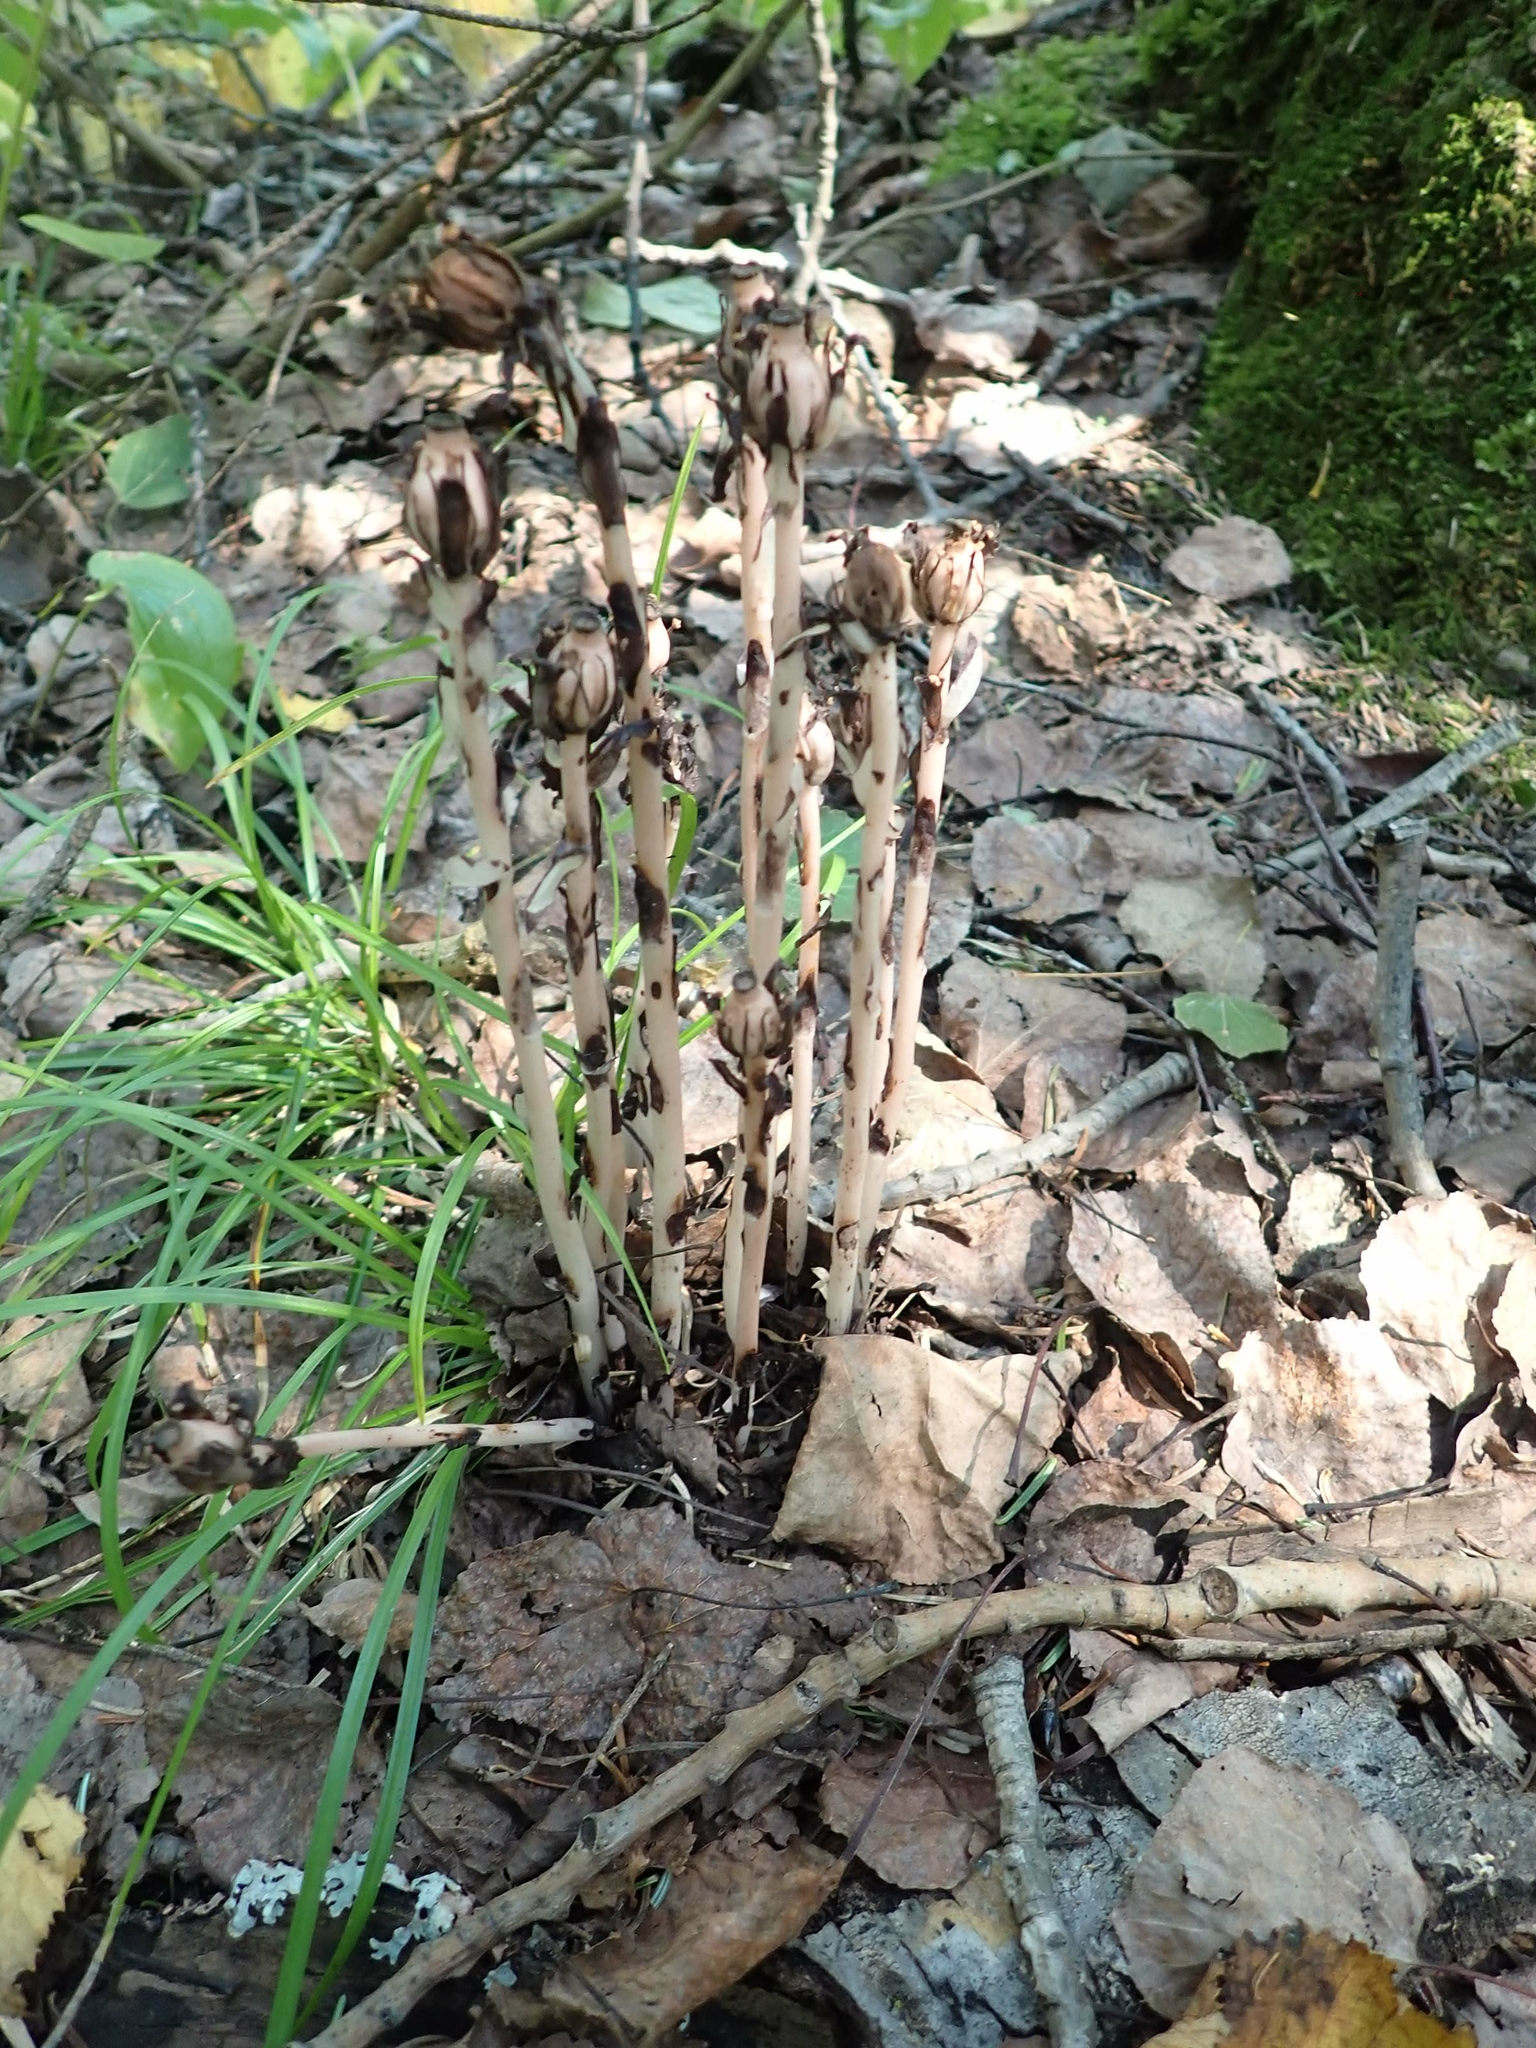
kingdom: Plantae
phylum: Tracheophyta
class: Magnoliopsida
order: Ericales
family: Ericaceae
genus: Monotropa
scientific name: Monotropa uniflora
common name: Convulsion root
